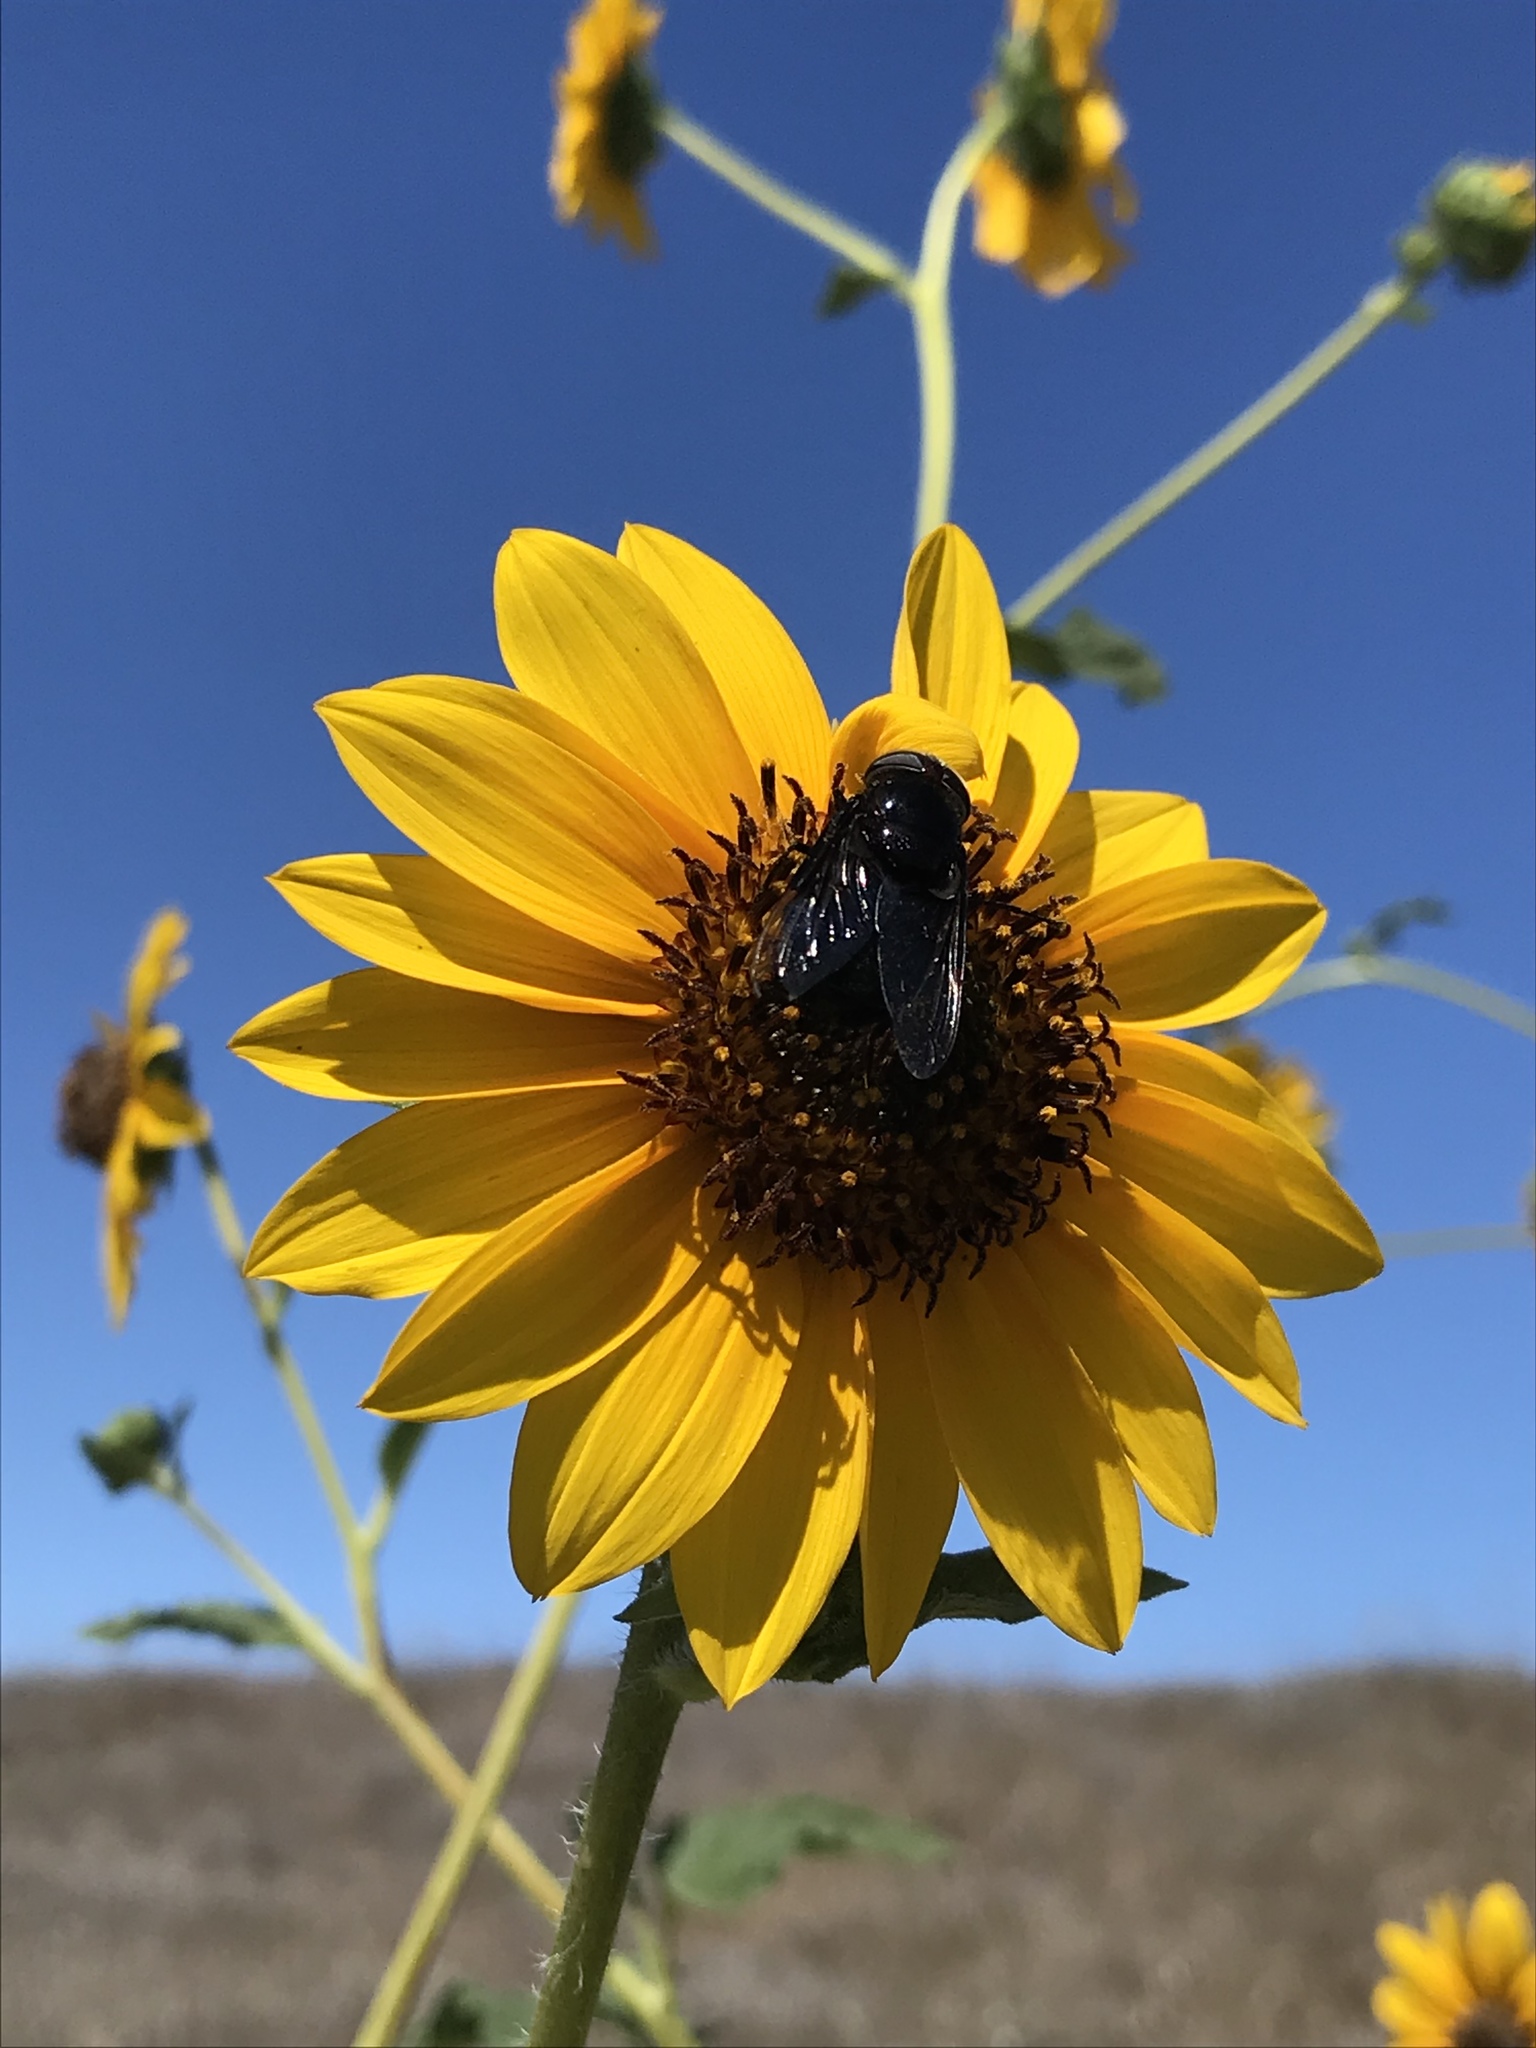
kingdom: Animalia
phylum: Arthropoda
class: Insecta
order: Diptera
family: Syrphidae
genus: Copestylum
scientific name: Copestylum
